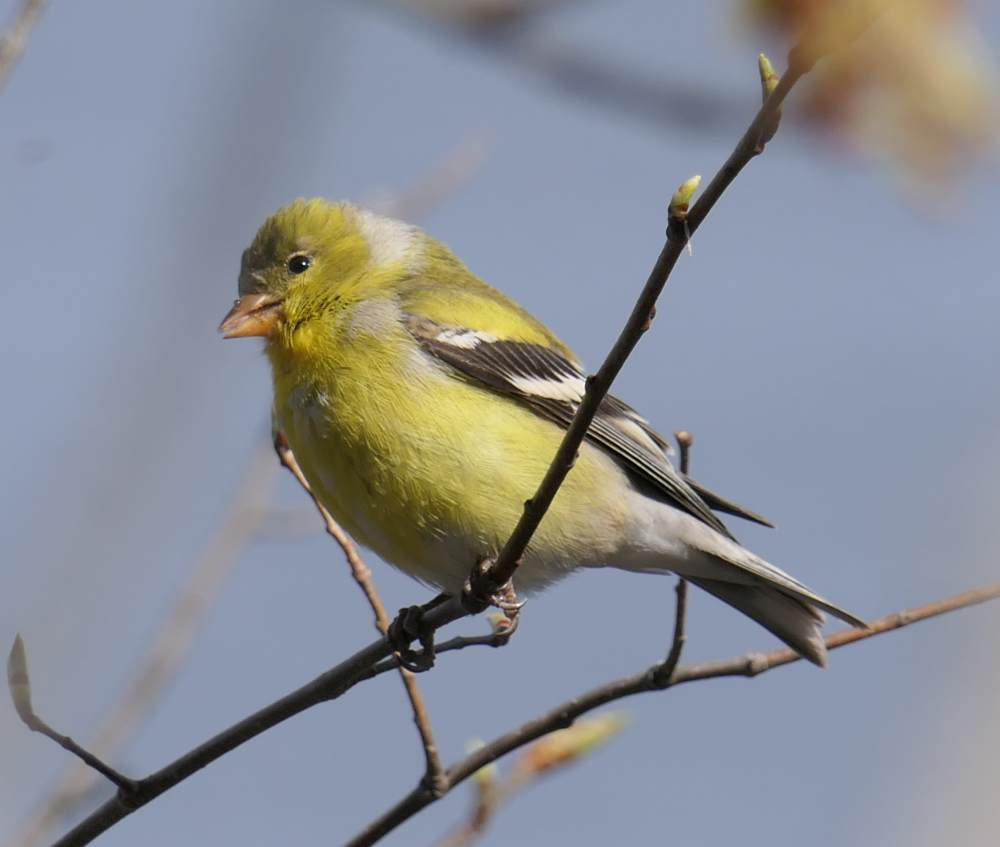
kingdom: Animalia
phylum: Chordata
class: Aves
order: Passeriformes
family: Fringillidae
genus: Spinus
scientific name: Spinus tristis
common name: American goldfinch
